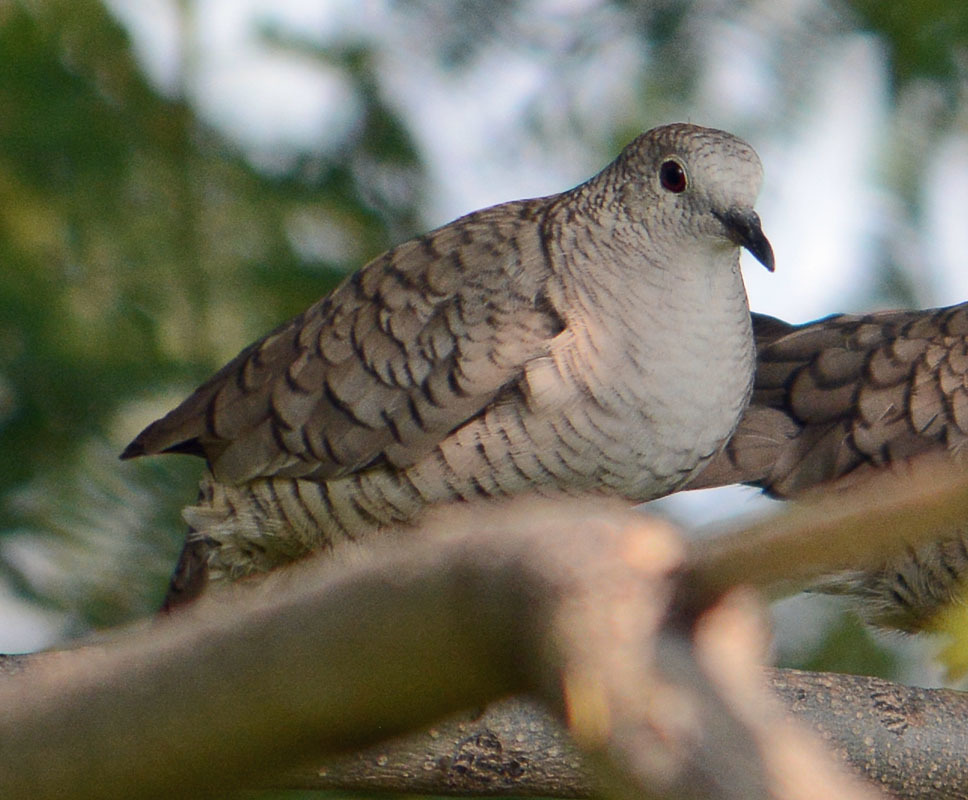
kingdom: Animalia
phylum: Chordata
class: Aves
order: Columbiformes
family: Columbidae
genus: Columbina
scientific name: Columbina inca
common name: Inca dove
